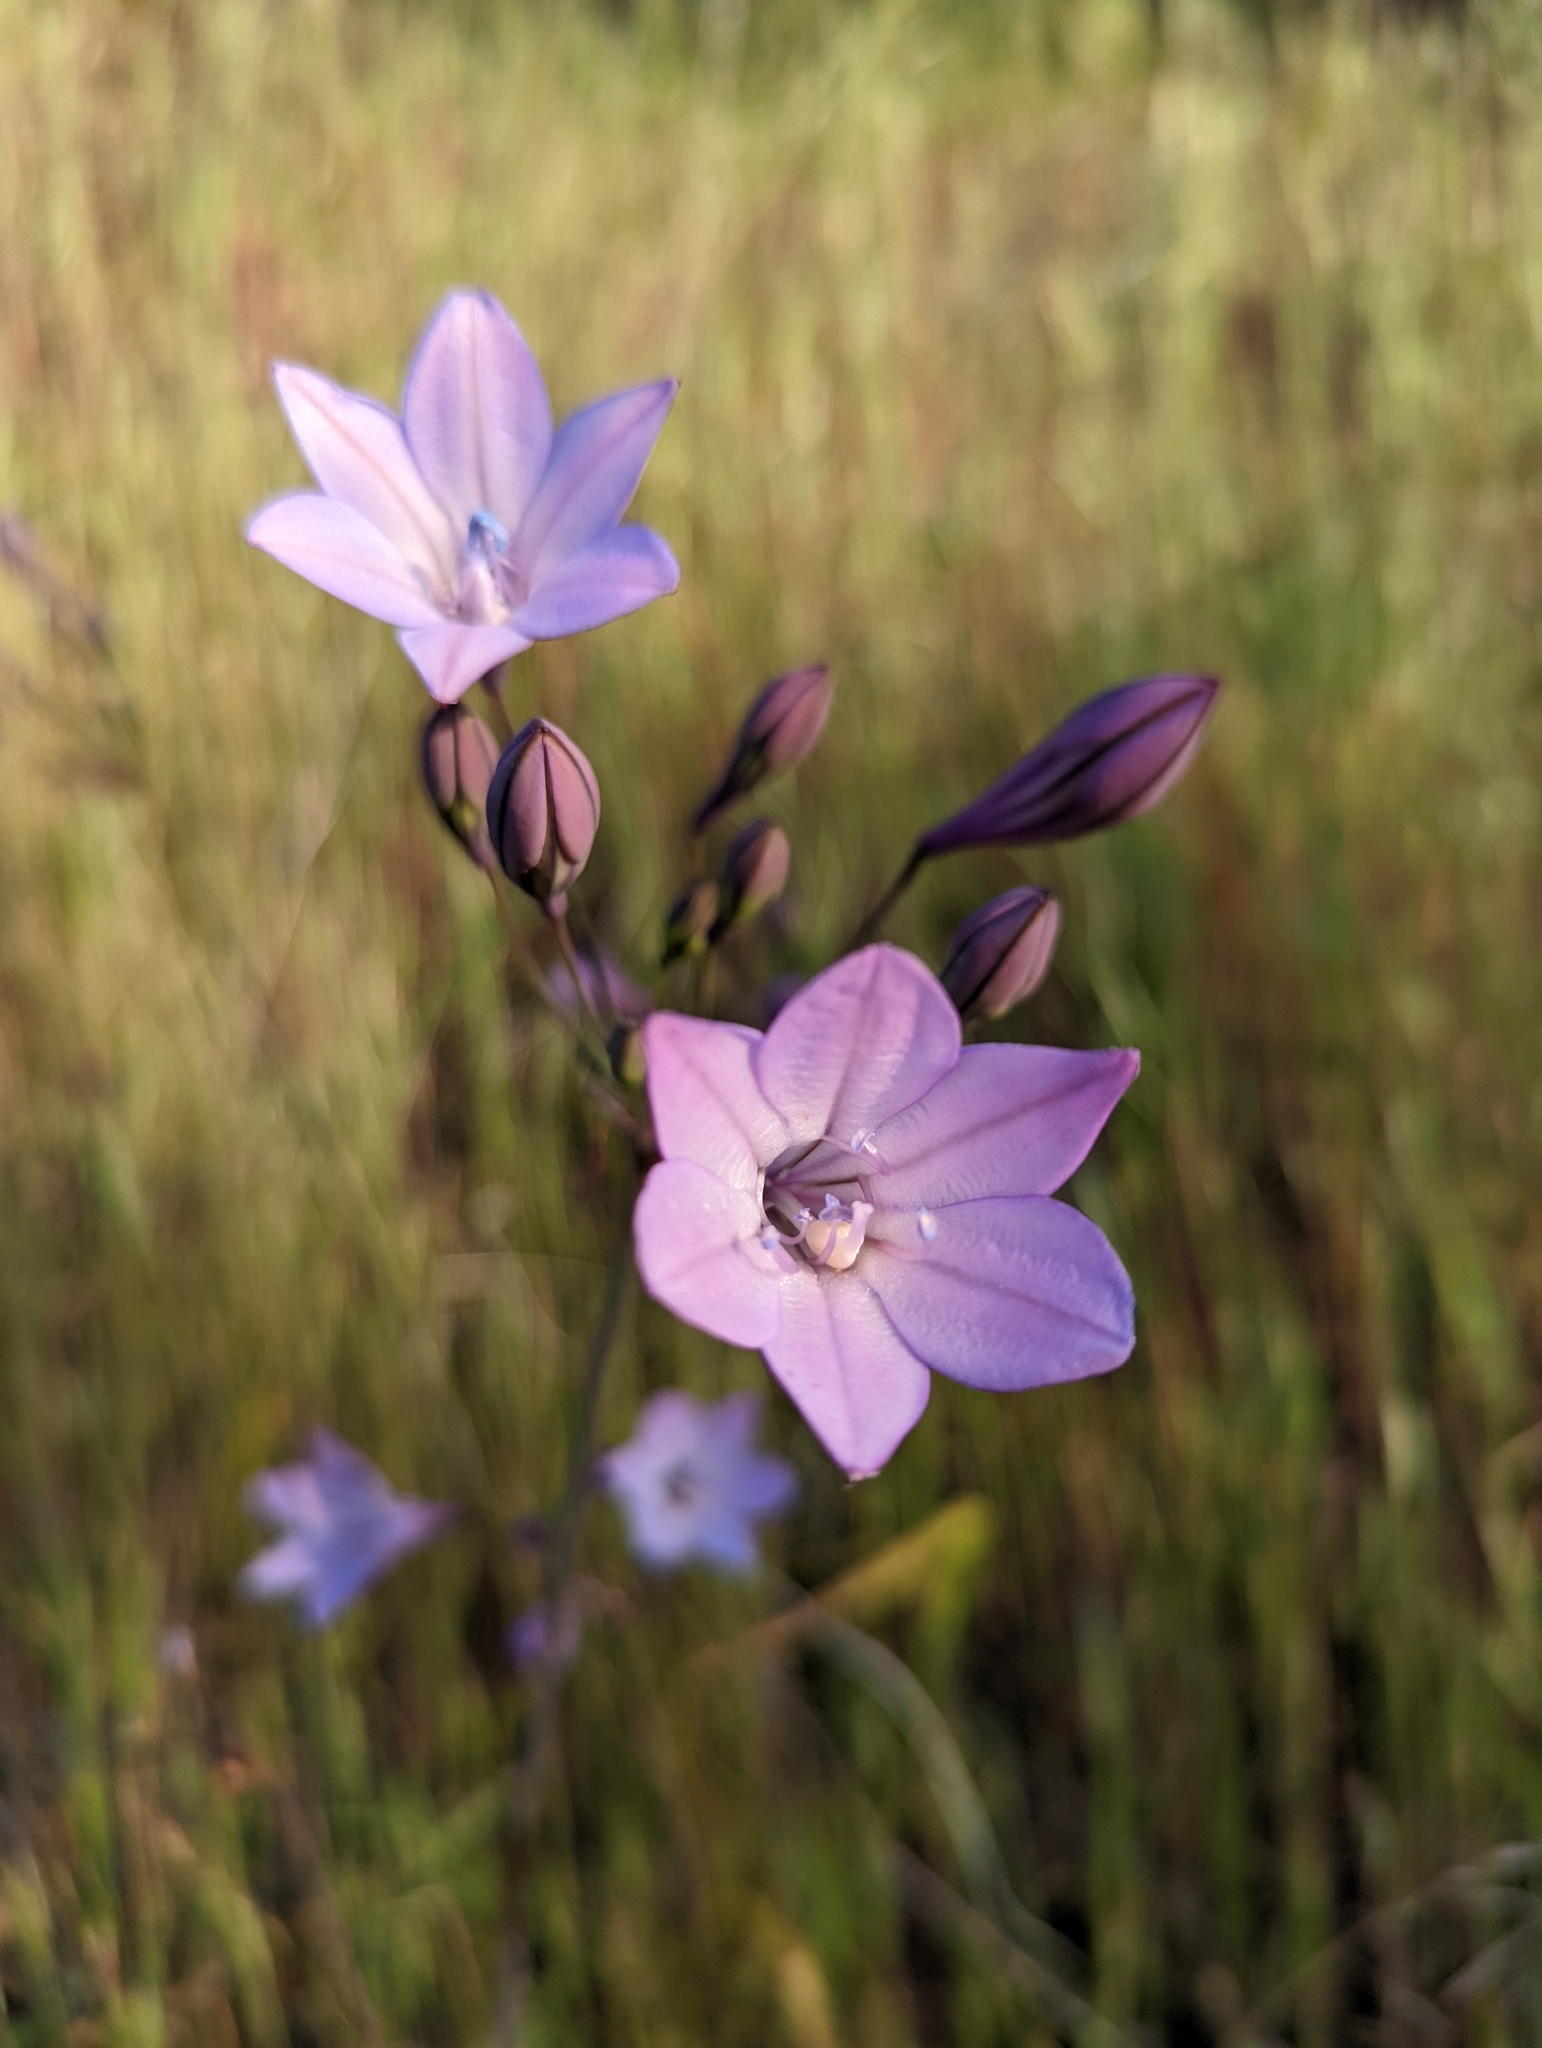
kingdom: Plantae
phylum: Tracheophyta
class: Liliopsida
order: Asparagales
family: Asparagaceae
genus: Triteleia
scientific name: Triteleia laxa
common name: Triplet-lily
